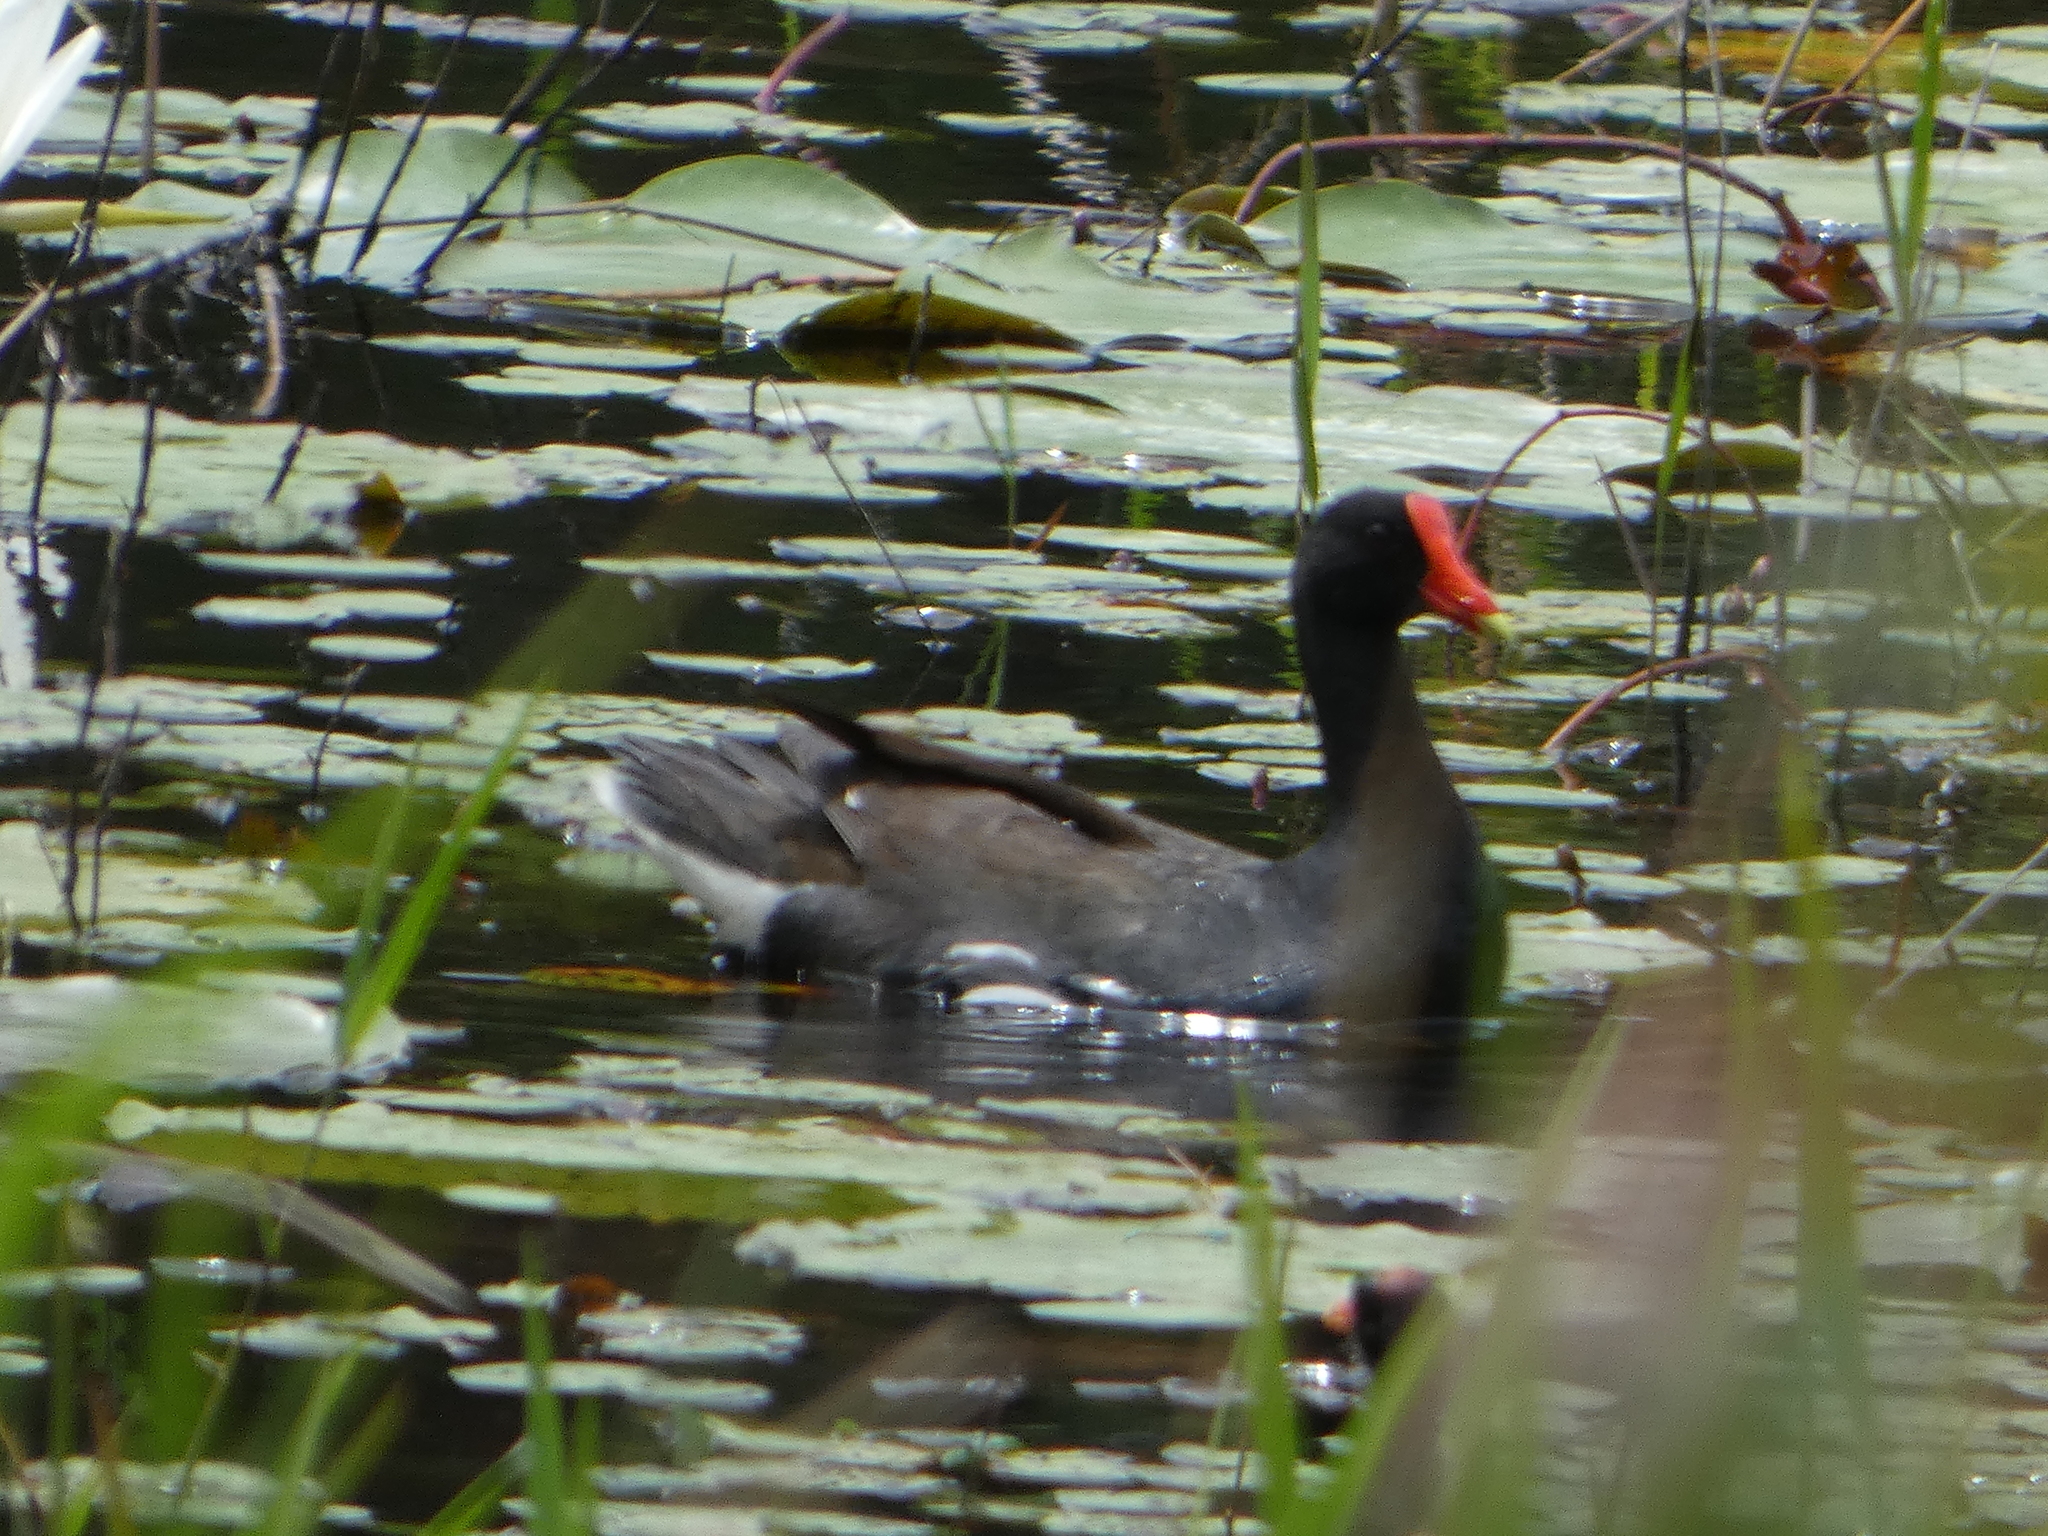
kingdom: Animalia
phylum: Chordata
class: Aves
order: Gruiformes
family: Rallidae
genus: Gallinula
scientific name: Gallinula chloropus
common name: Common moorhen
